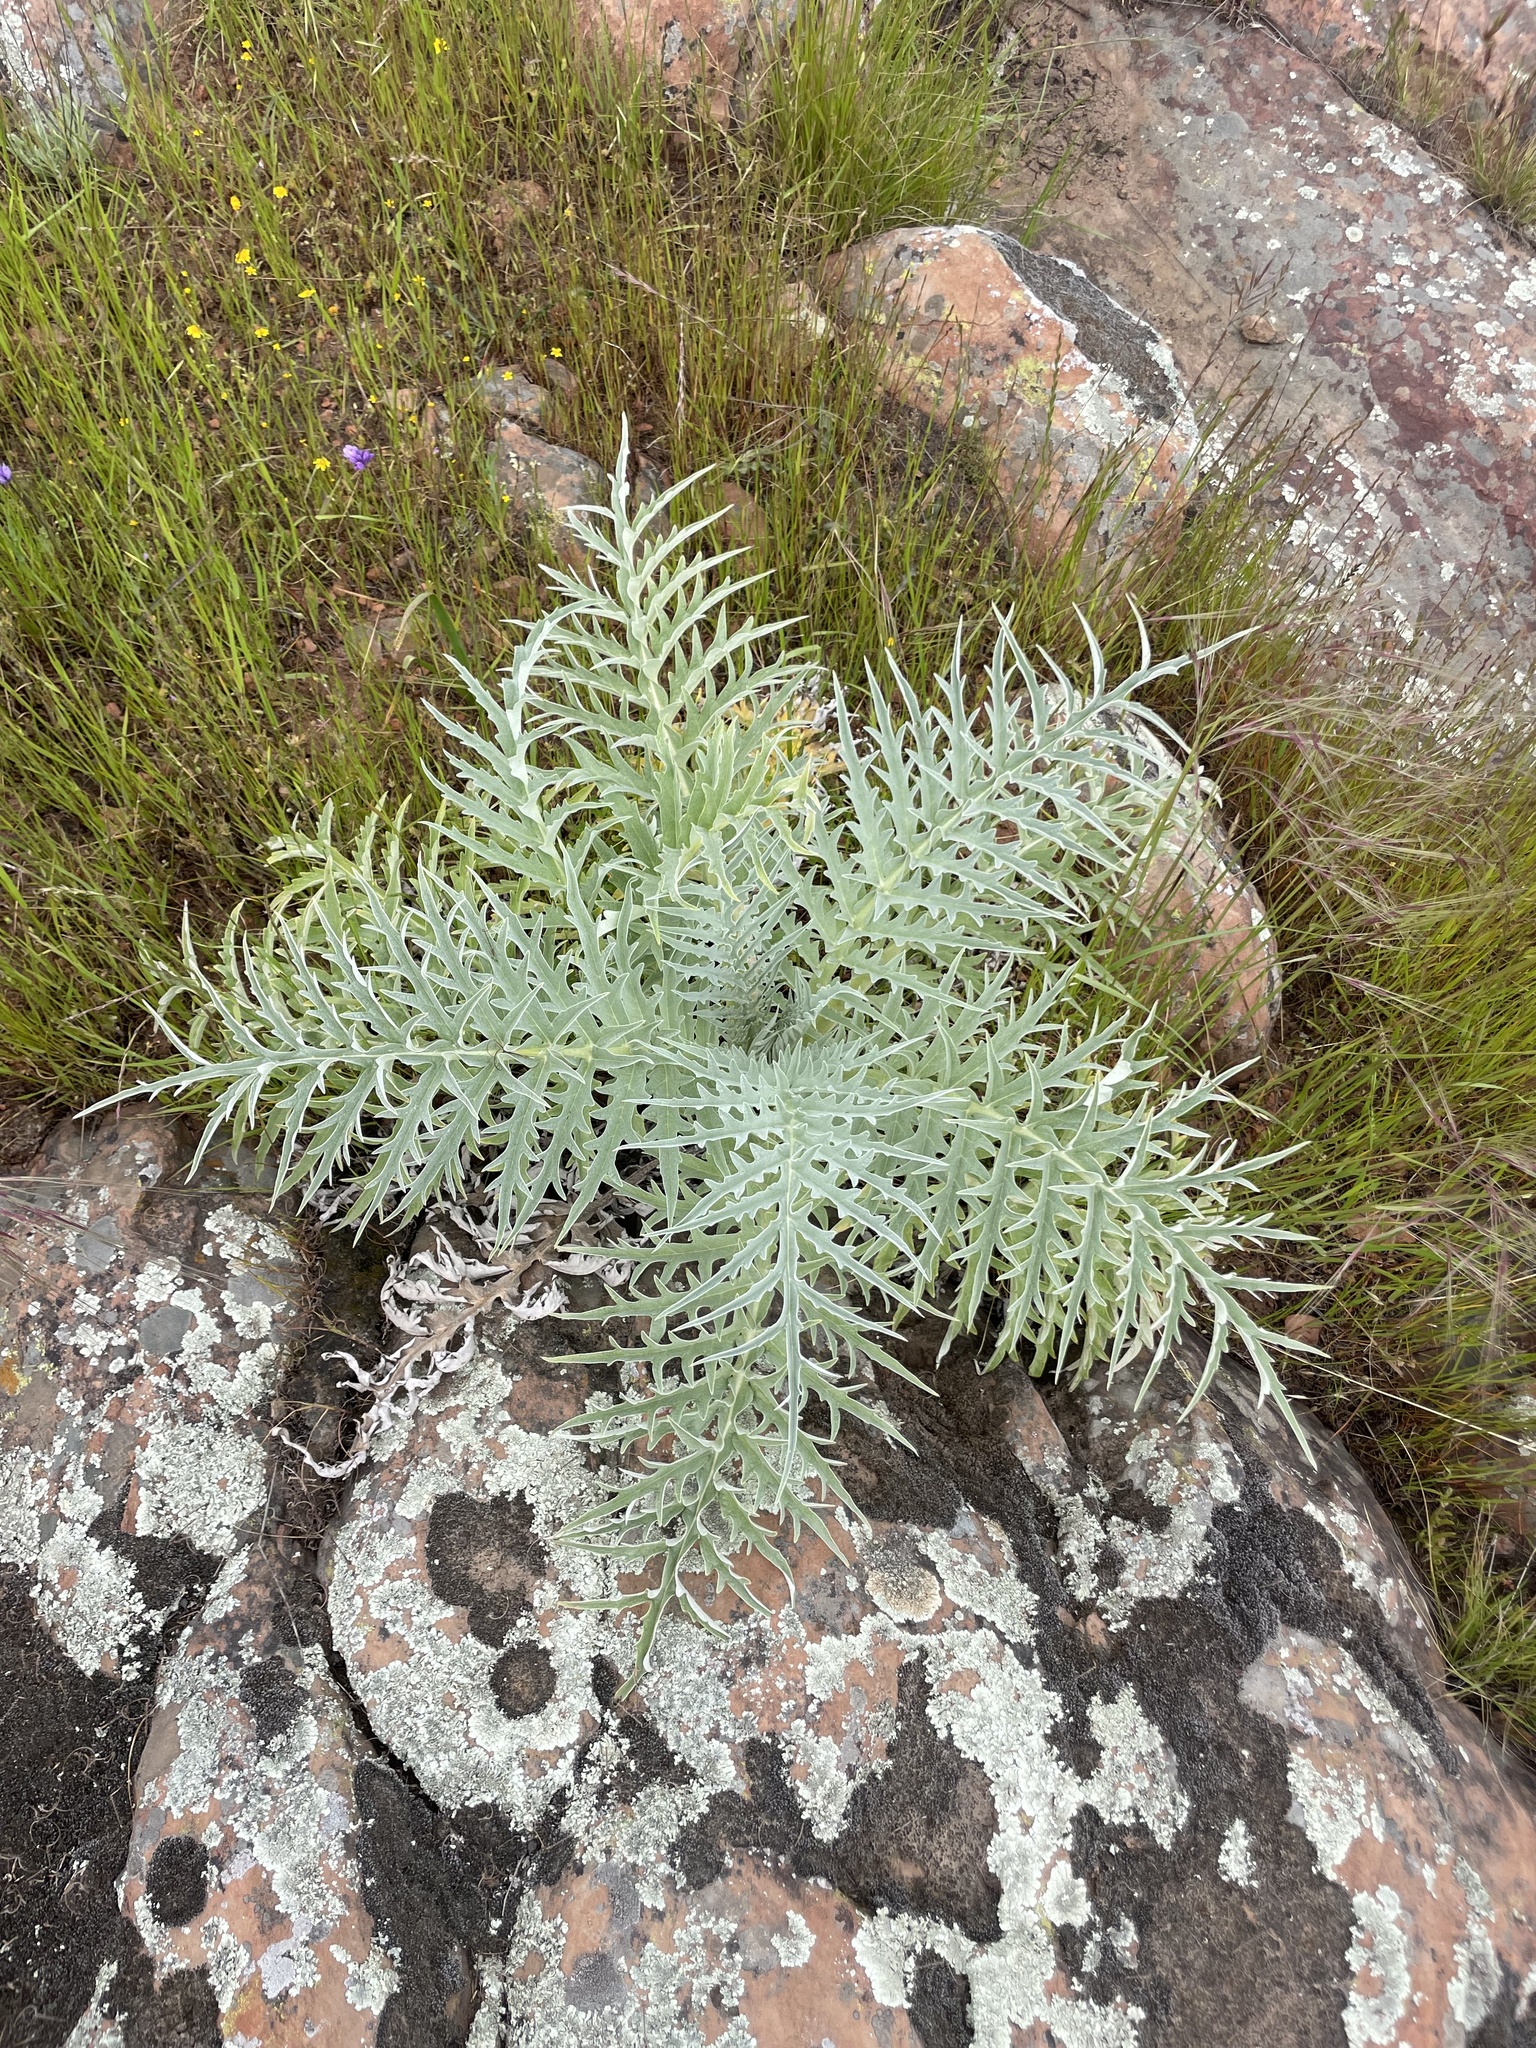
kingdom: Plantae
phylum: Tracheophyta
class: Magnoliopsida
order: Asterales
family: Asteraceae
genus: Cynara
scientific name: Cynara cardunculus
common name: Globe artichoke
